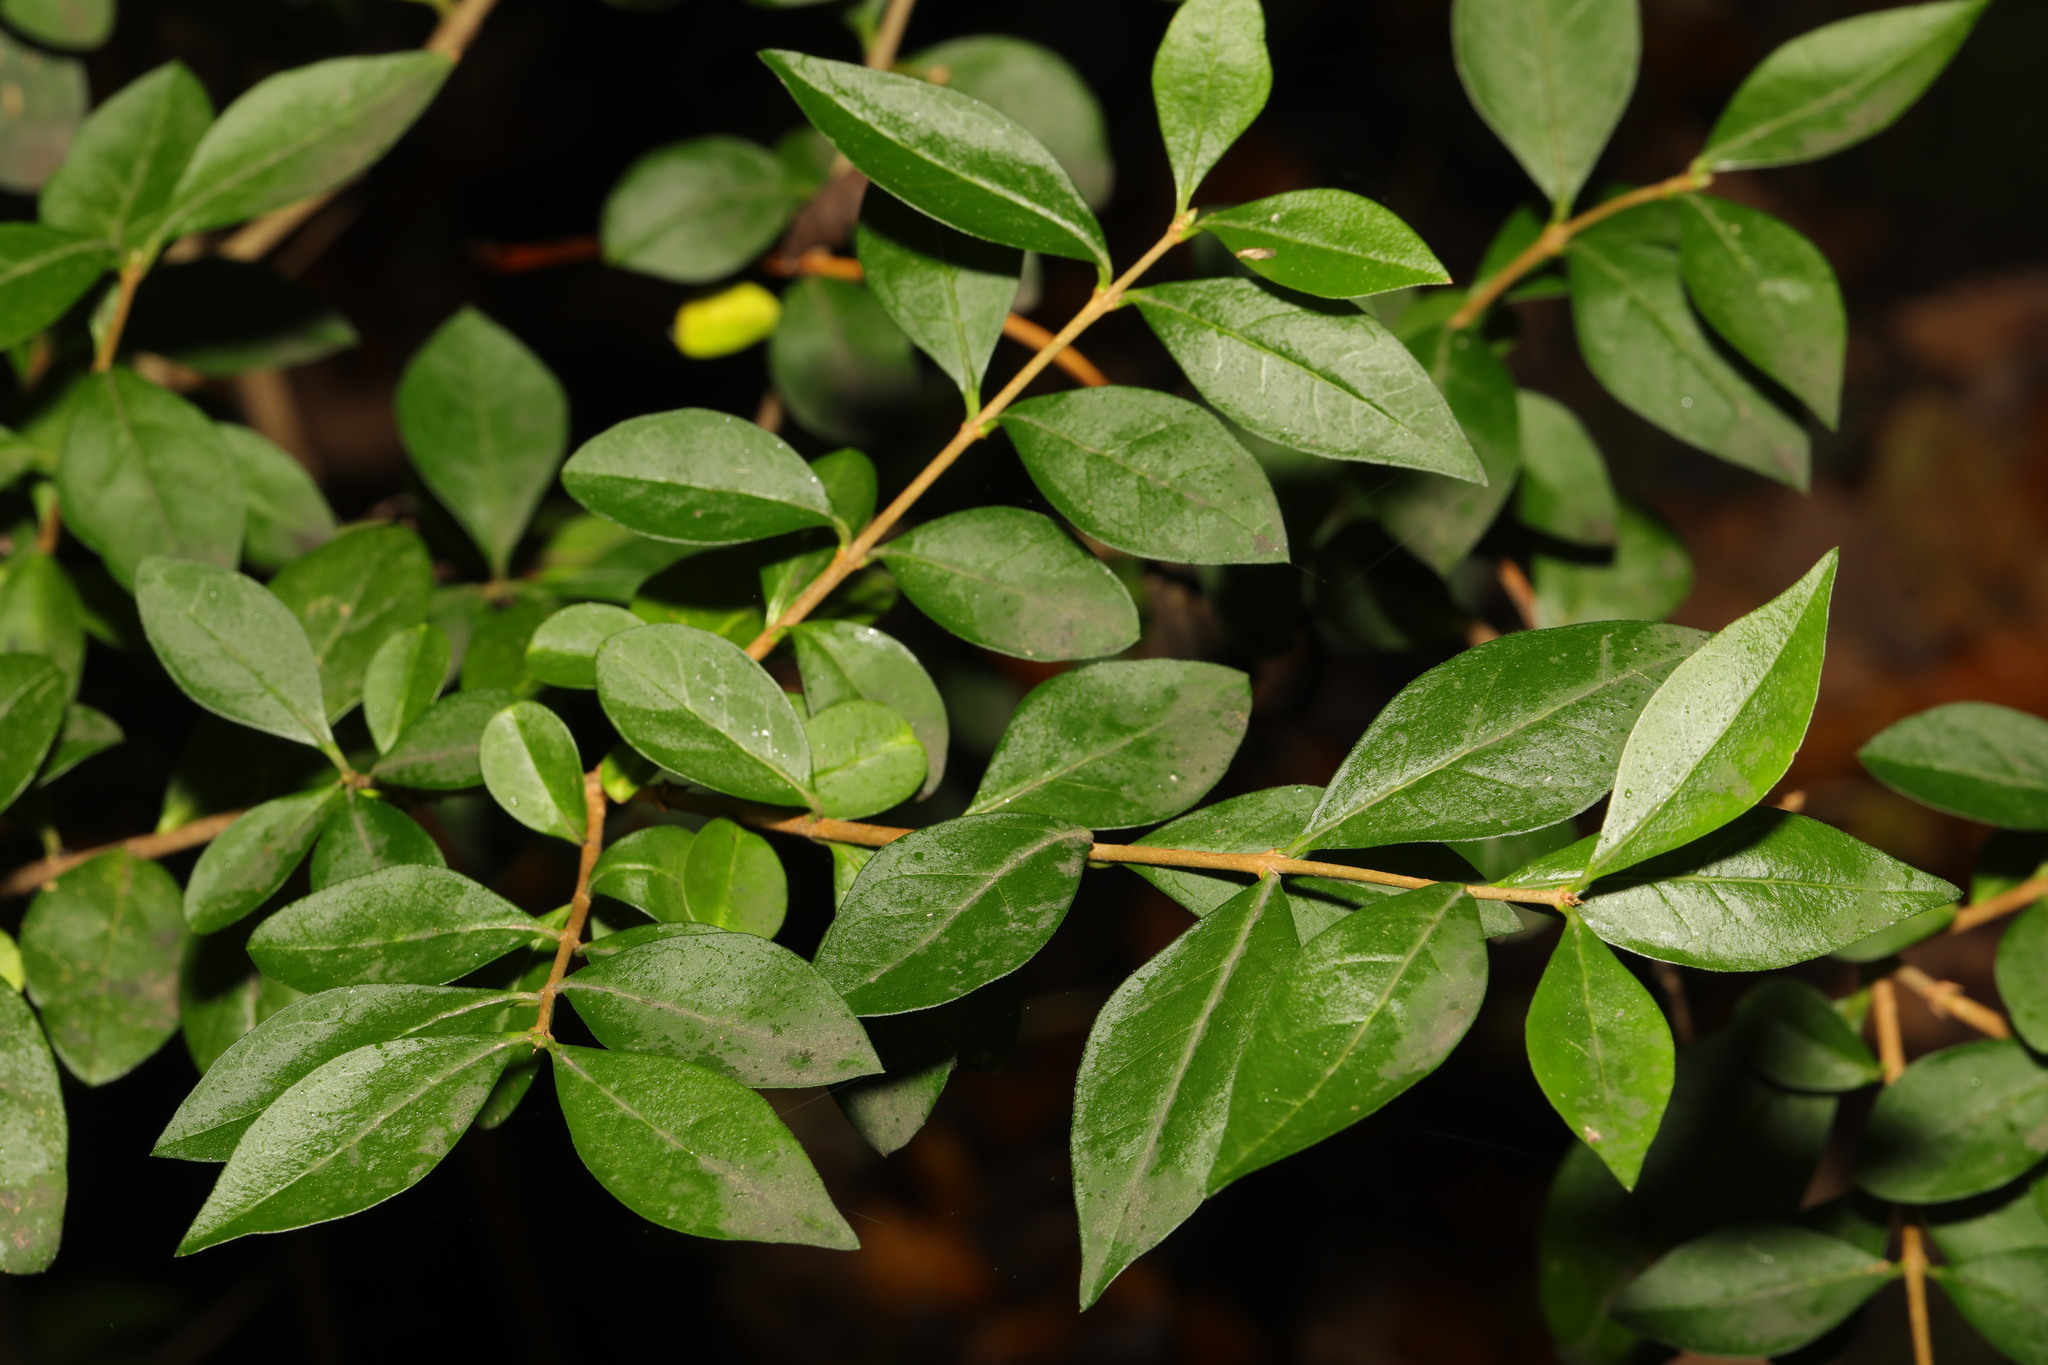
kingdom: Plantae
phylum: Tracheophyta
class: Magnoliopsida
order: Lamiales
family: Oleaceae
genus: Ligustrum
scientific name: Ligustrum ovalifolium
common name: California privet
